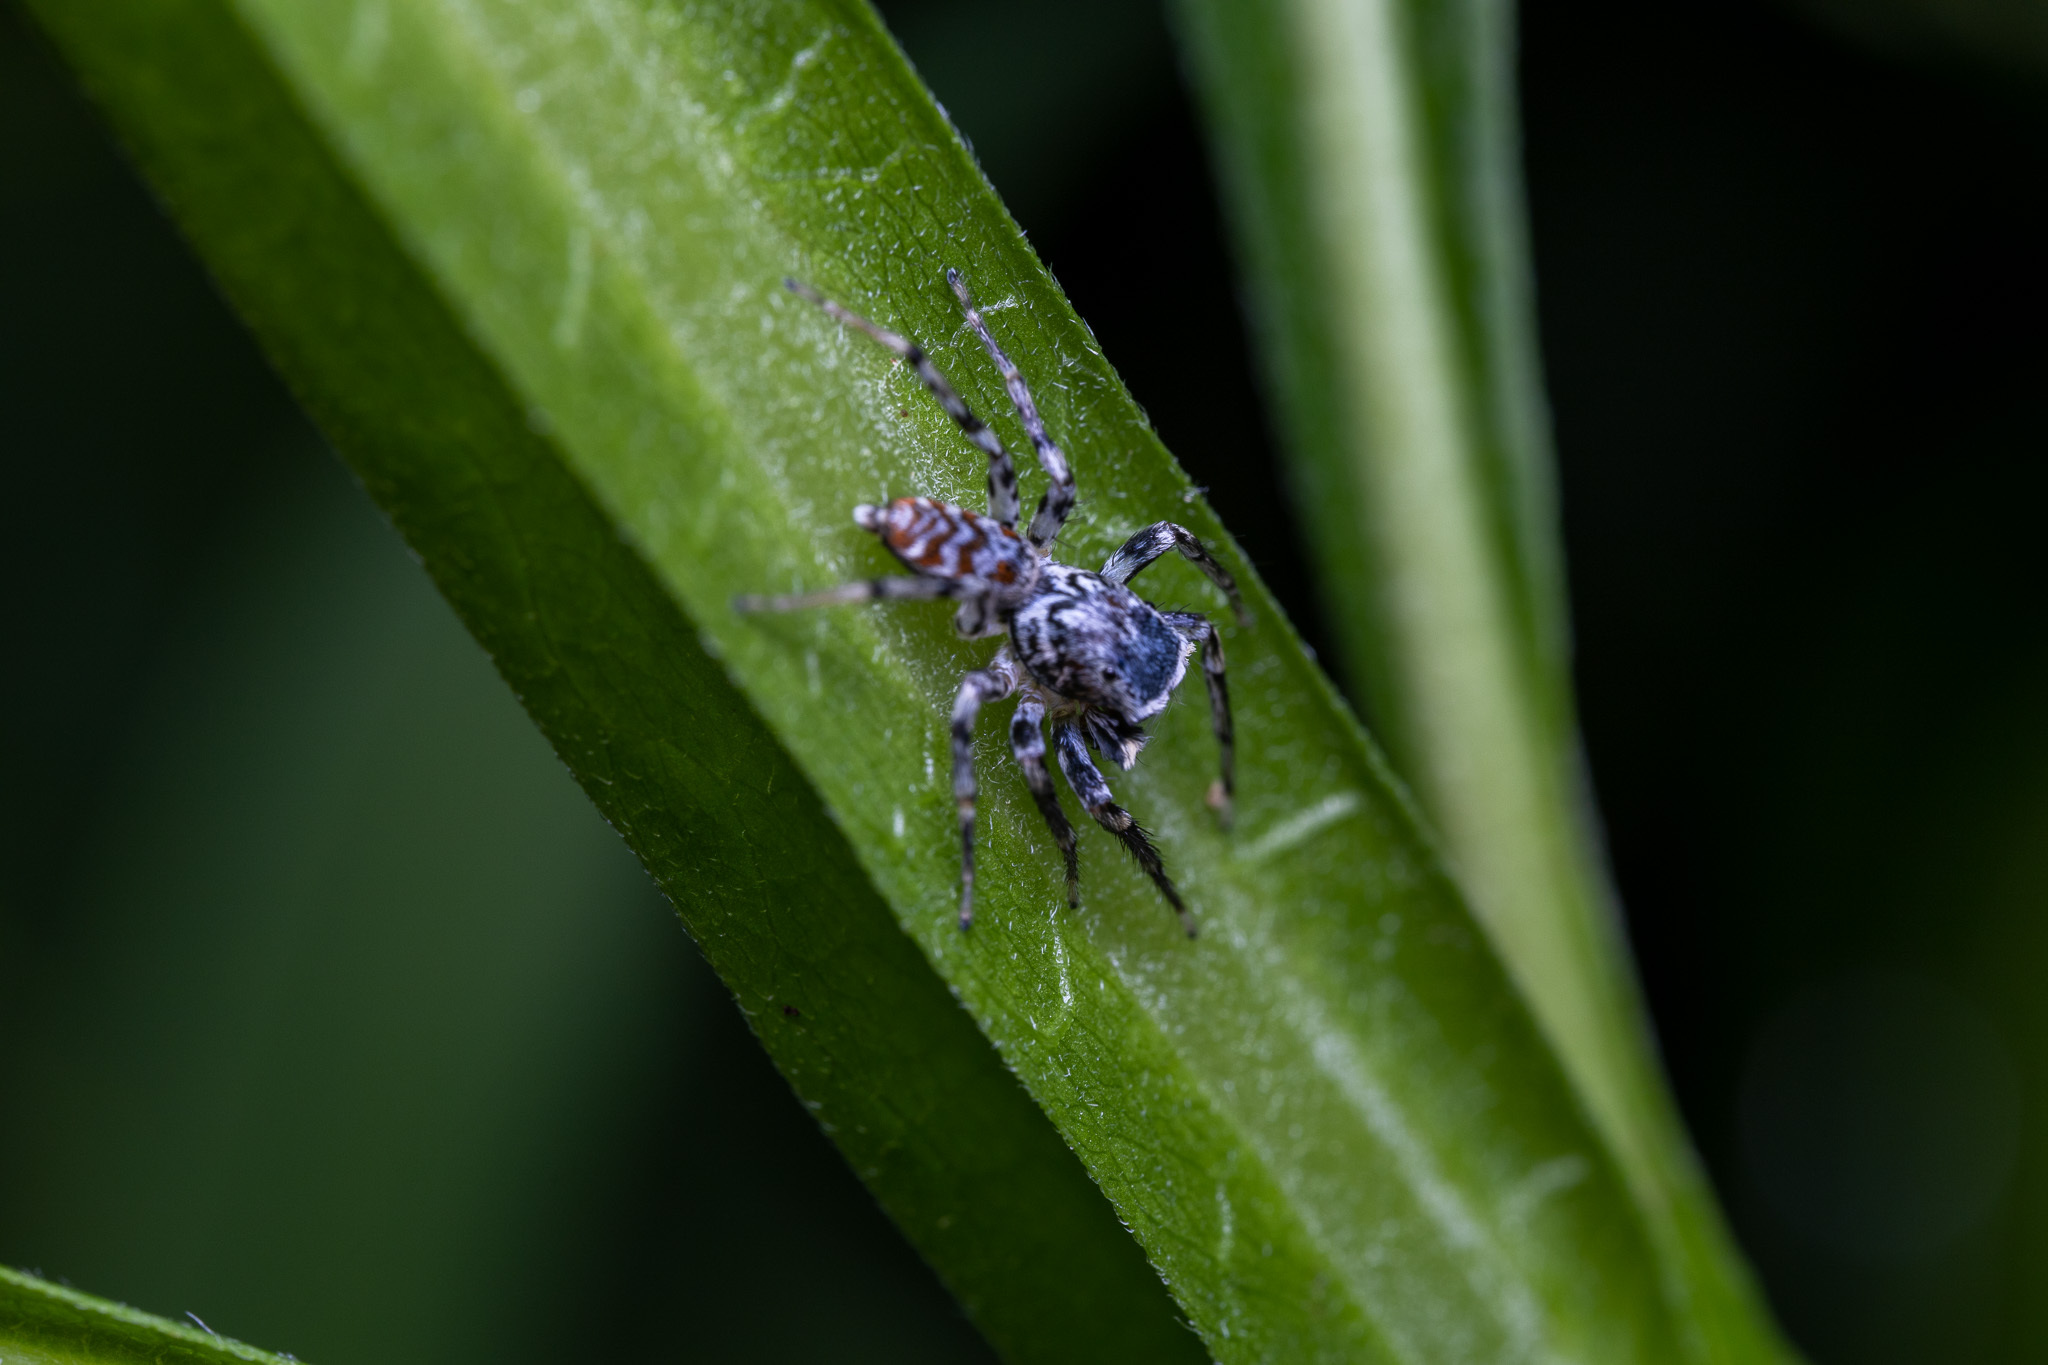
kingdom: Animalia
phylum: Arthropoda
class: Arachnida
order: Araneae
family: Salticidae
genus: Maevia
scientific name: Maevia expansa
